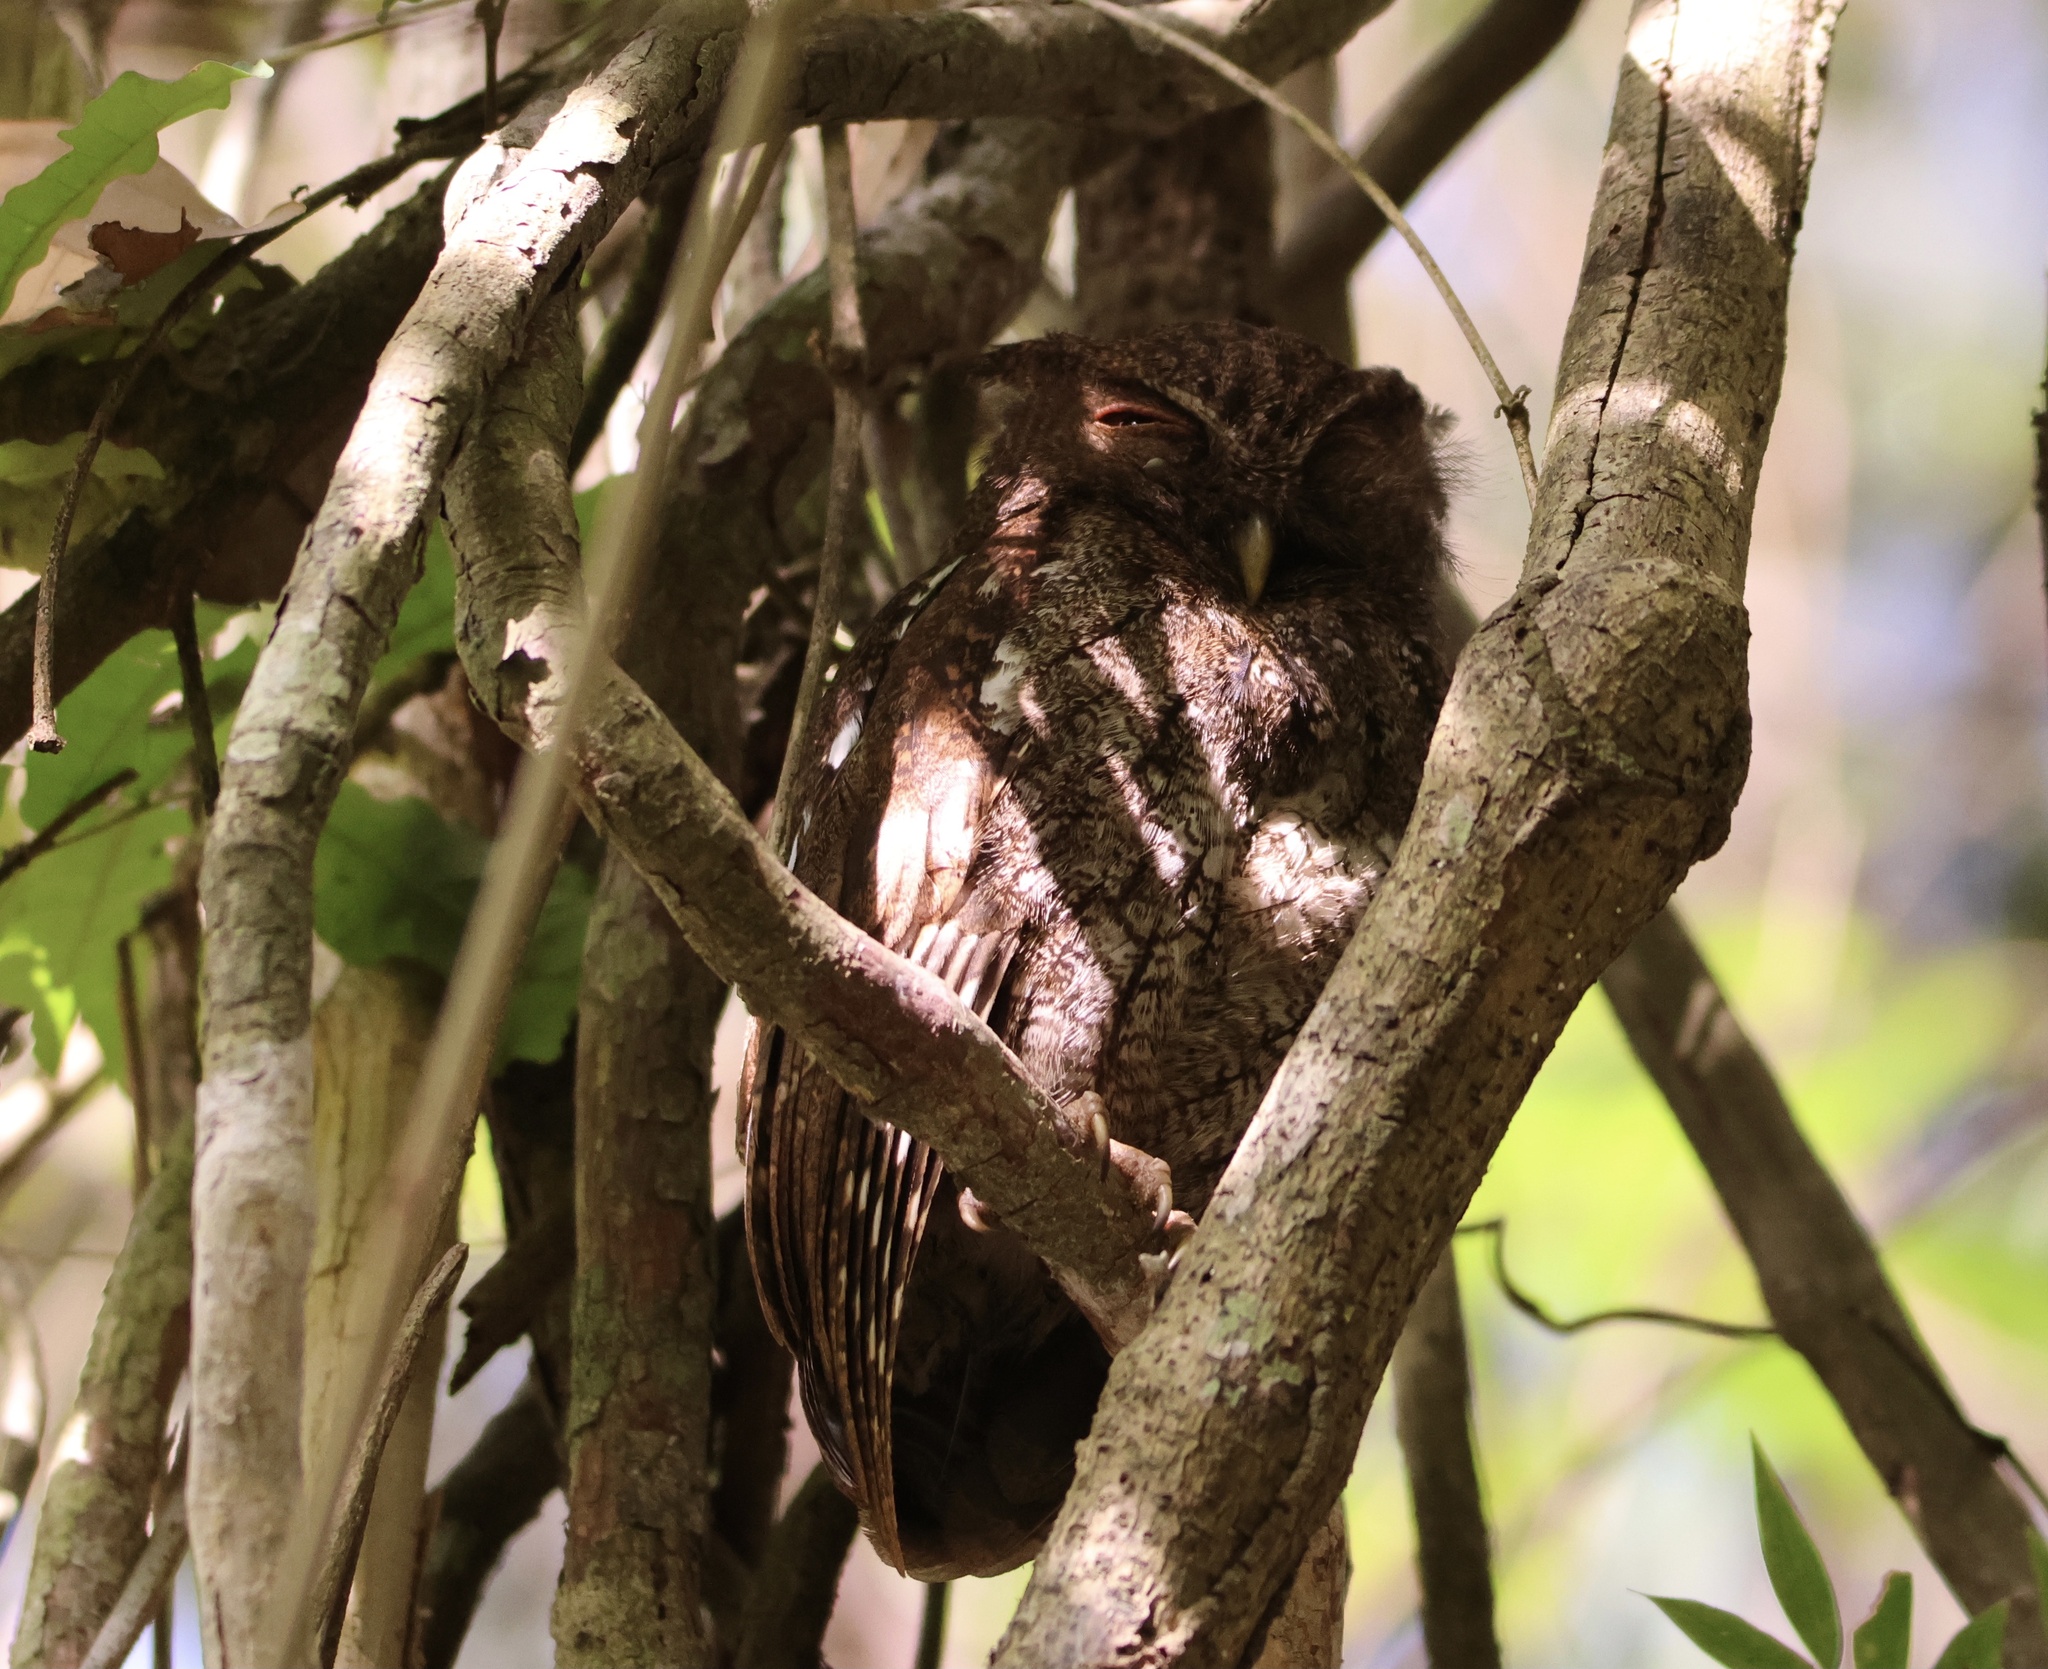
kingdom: Animalia
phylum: Chordata
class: Aves
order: Strigiformes
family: Strigidae
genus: Megascops
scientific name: Megascops centralis
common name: Choco screech owl
